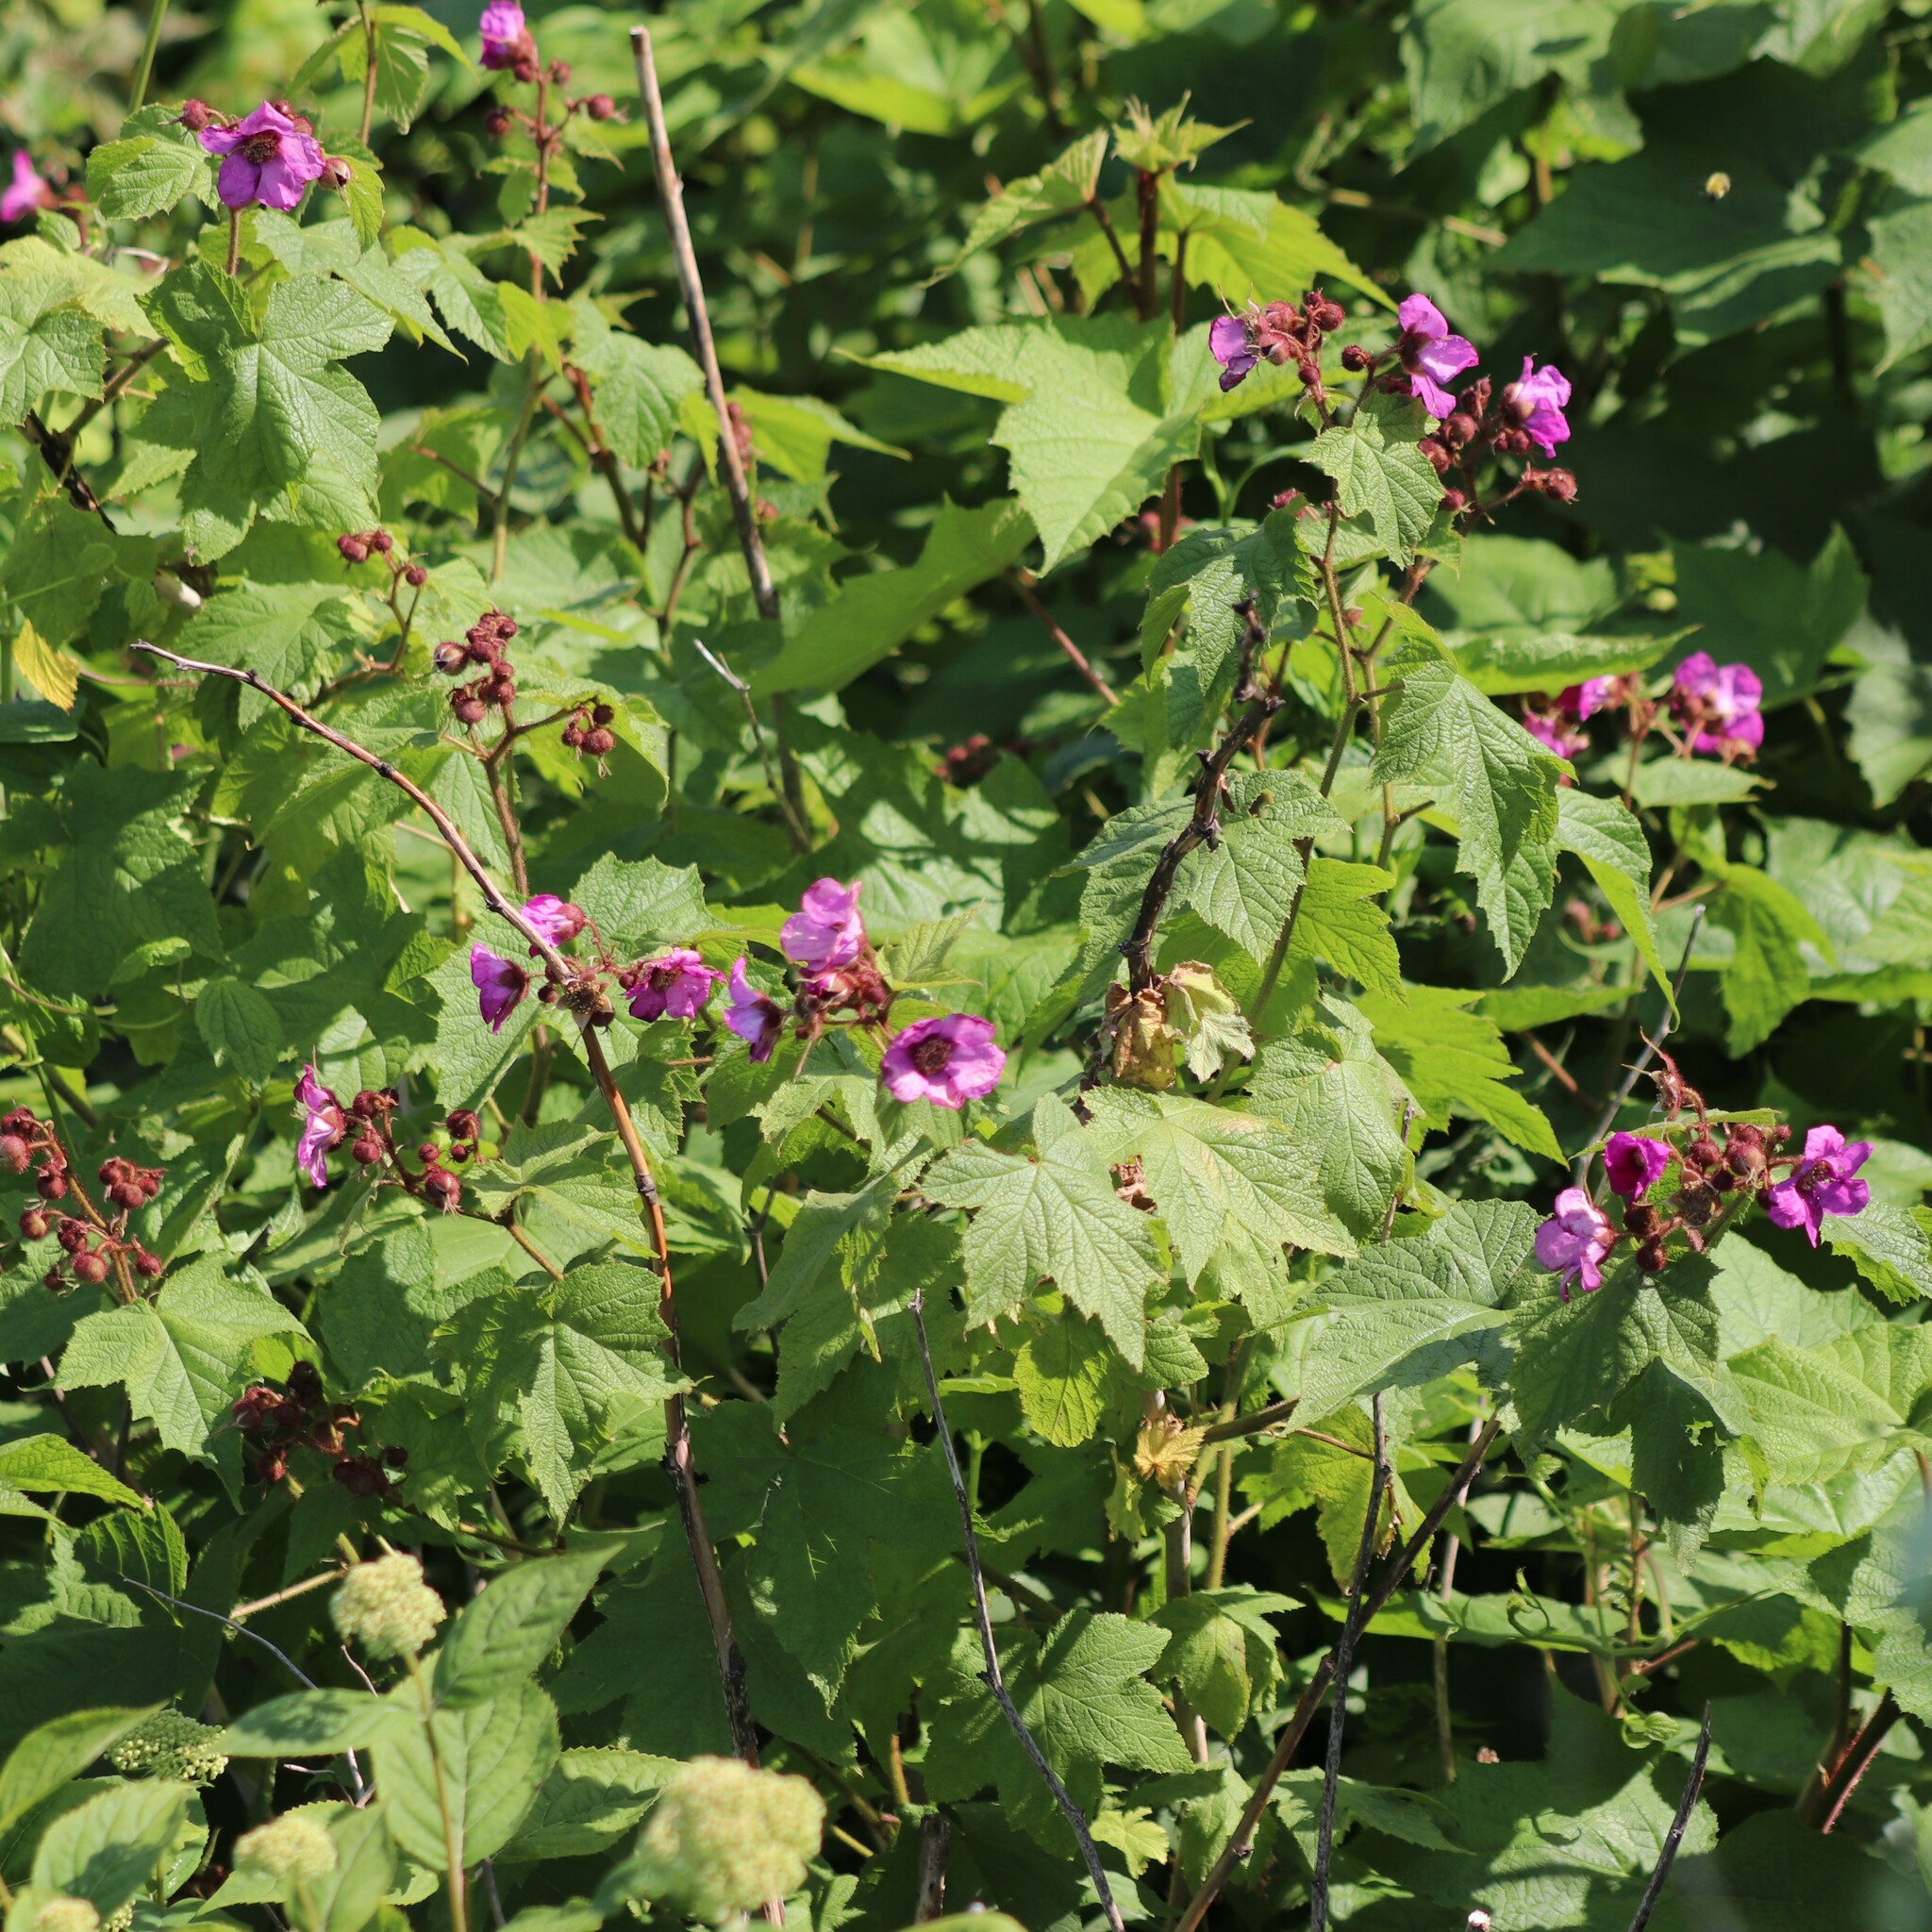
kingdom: Plantae
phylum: Tracheophyta
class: Magnoliopsida
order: Rosales
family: Rosaceae
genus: Rubus
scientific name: Rubus odoratus
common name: Purple-flowered raspberry
